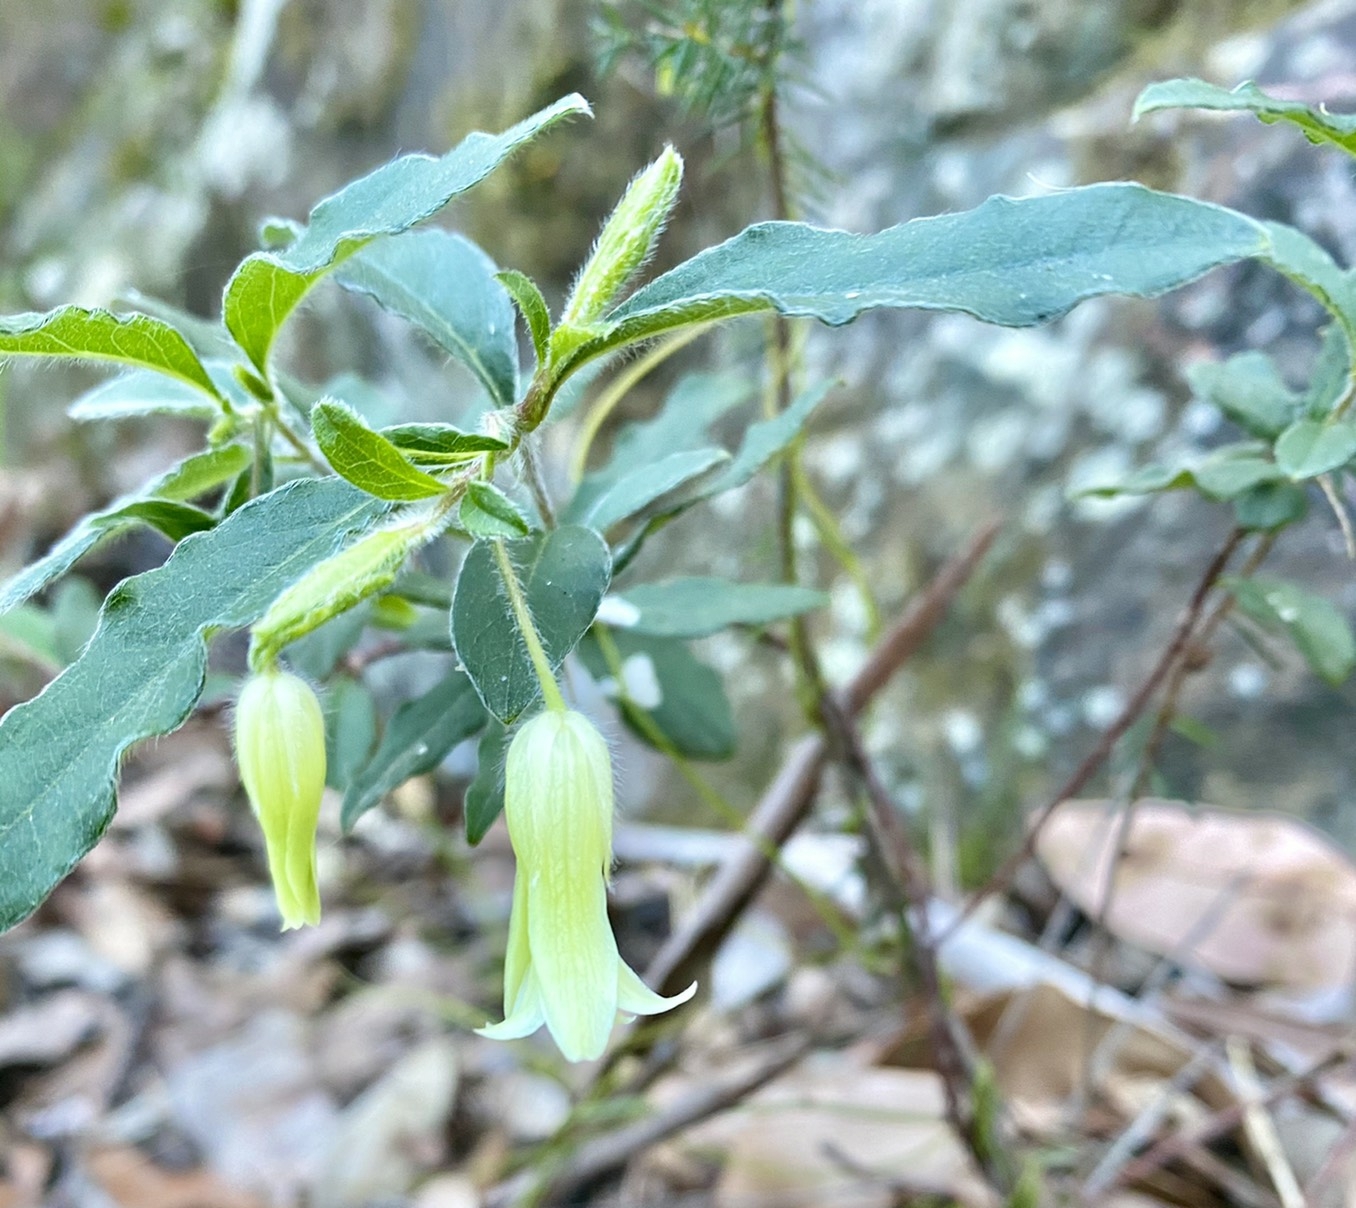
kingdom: Plantae
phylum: Tracheophyta
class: Magnoliopsida
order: Apiales
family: Pittosporaceae
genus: Billardiera
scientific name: Billardiera scandens
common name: Apple-berry
